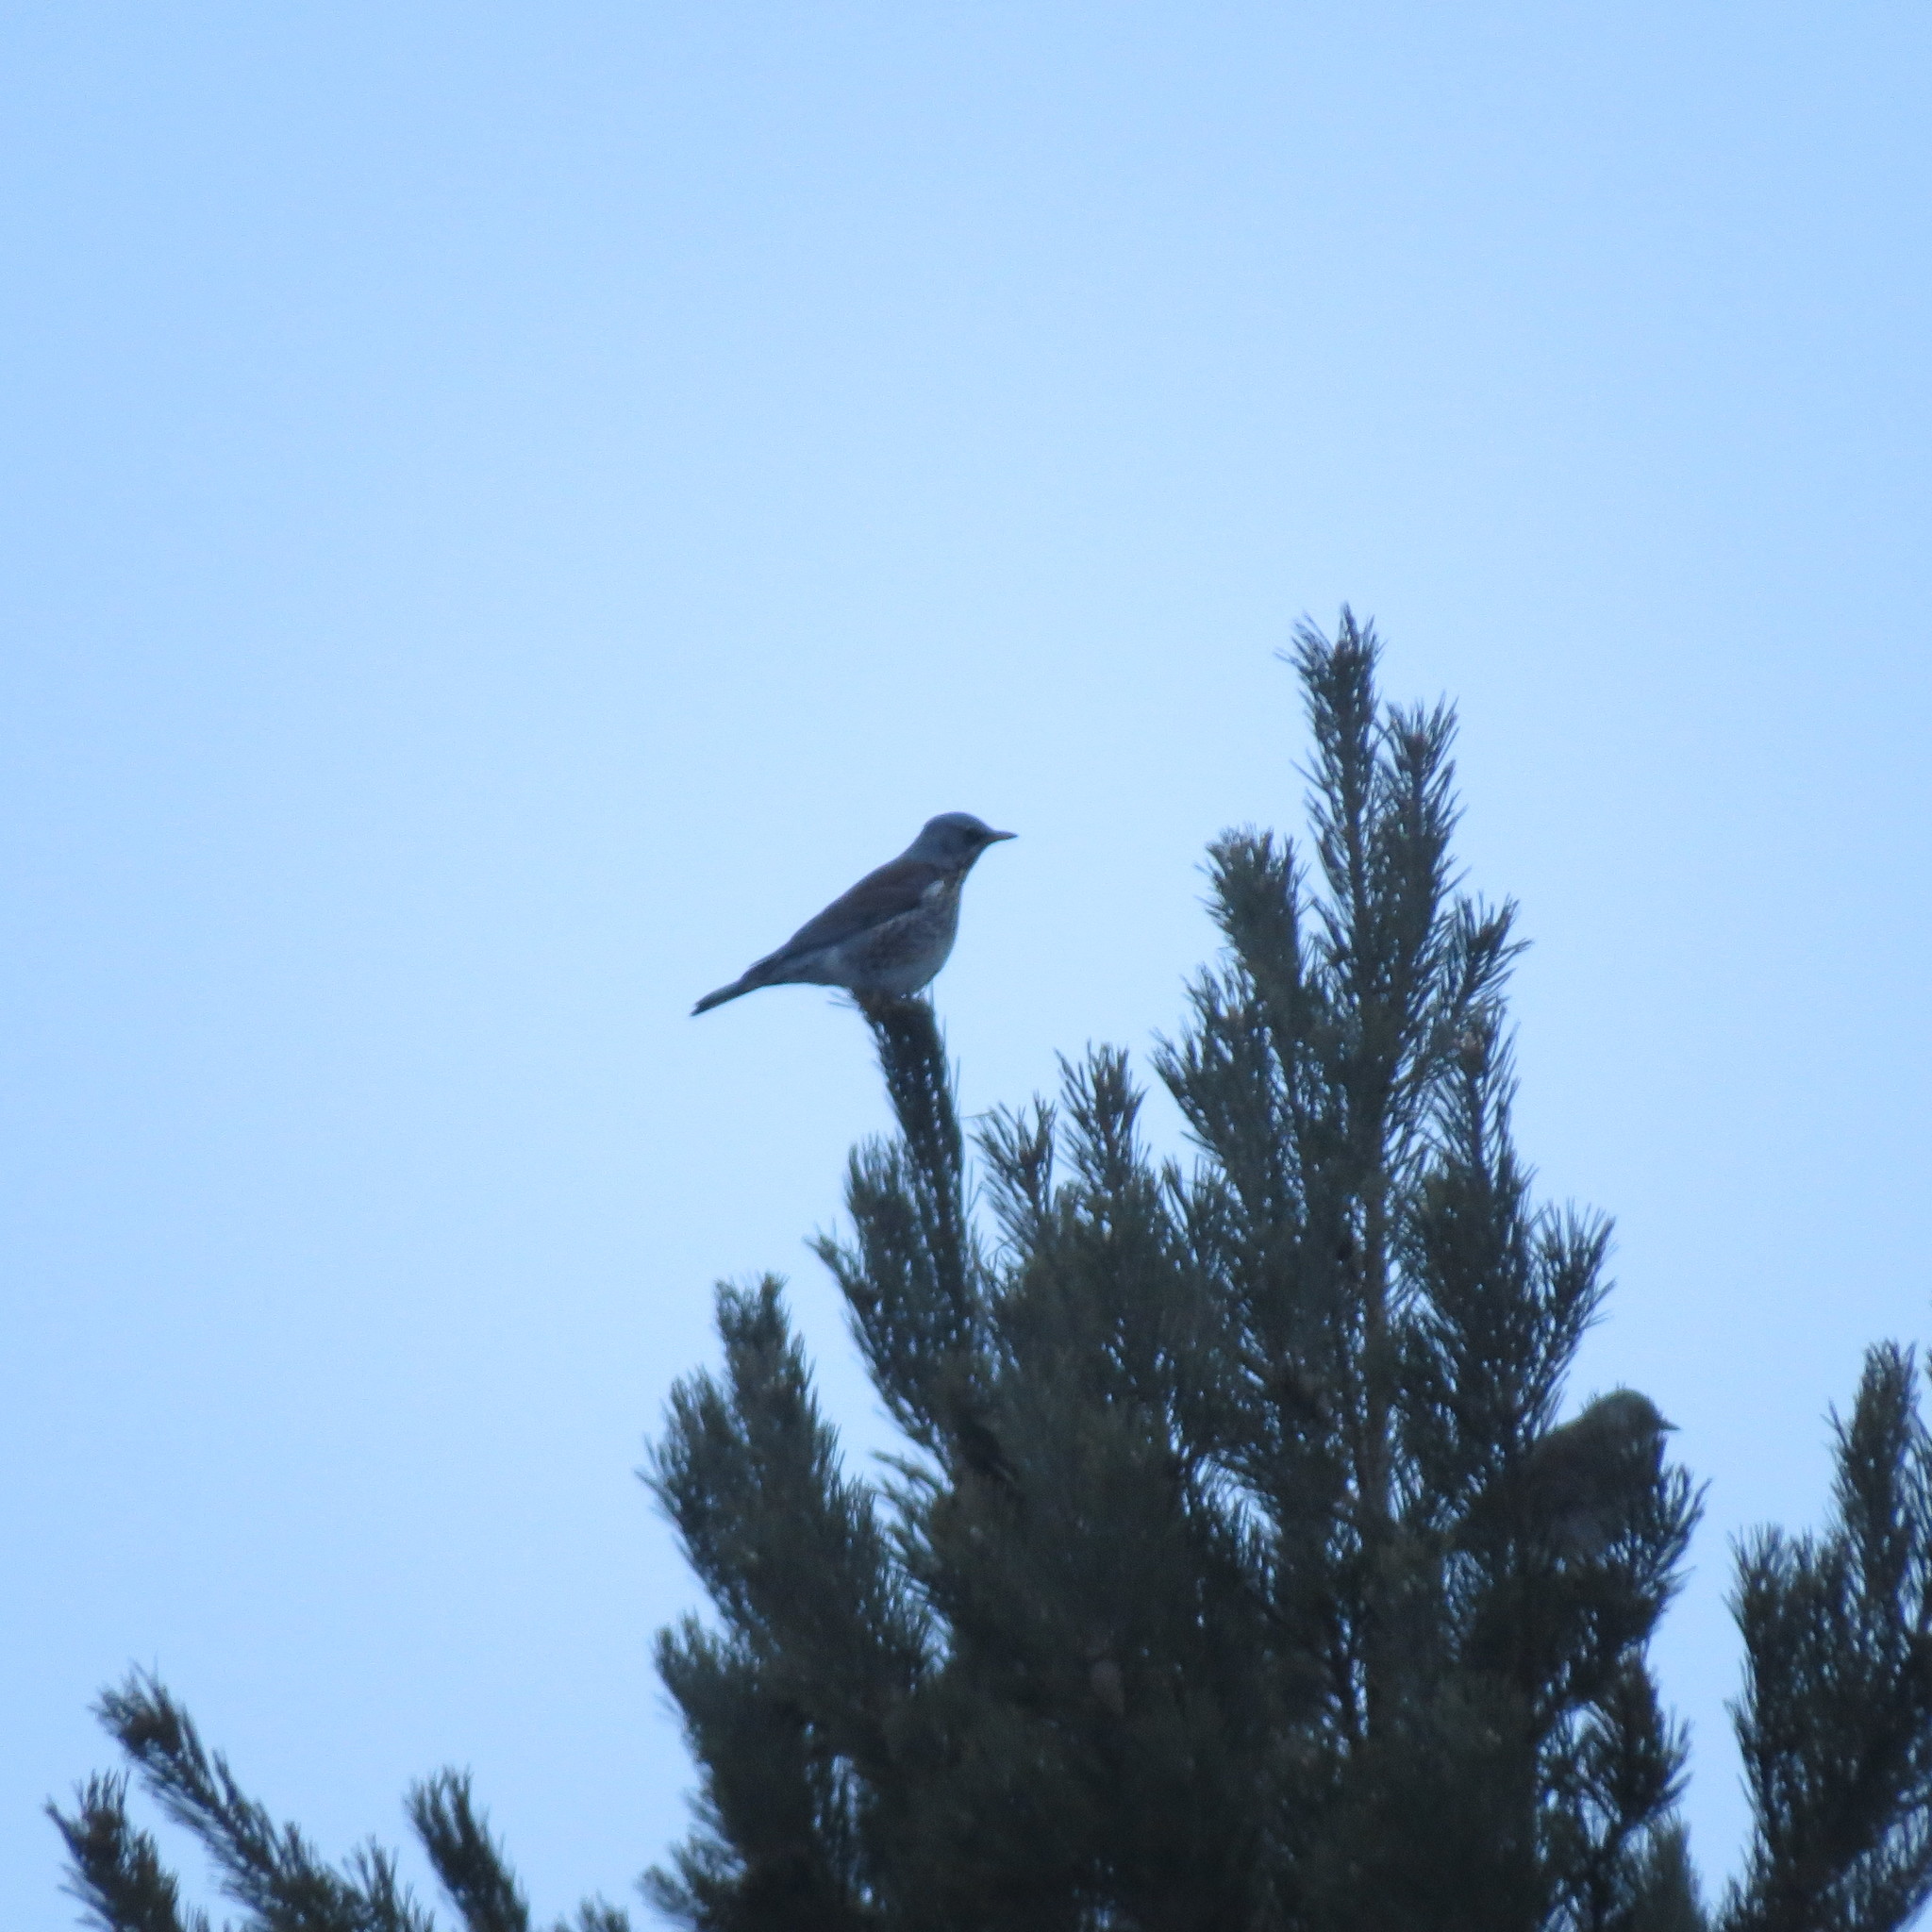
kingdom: Animalia
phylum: Chordata
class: Aves
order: Passeriformes
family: Turdidae
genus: Turdus
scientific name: Turdus pilaris
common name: Fieldfare
